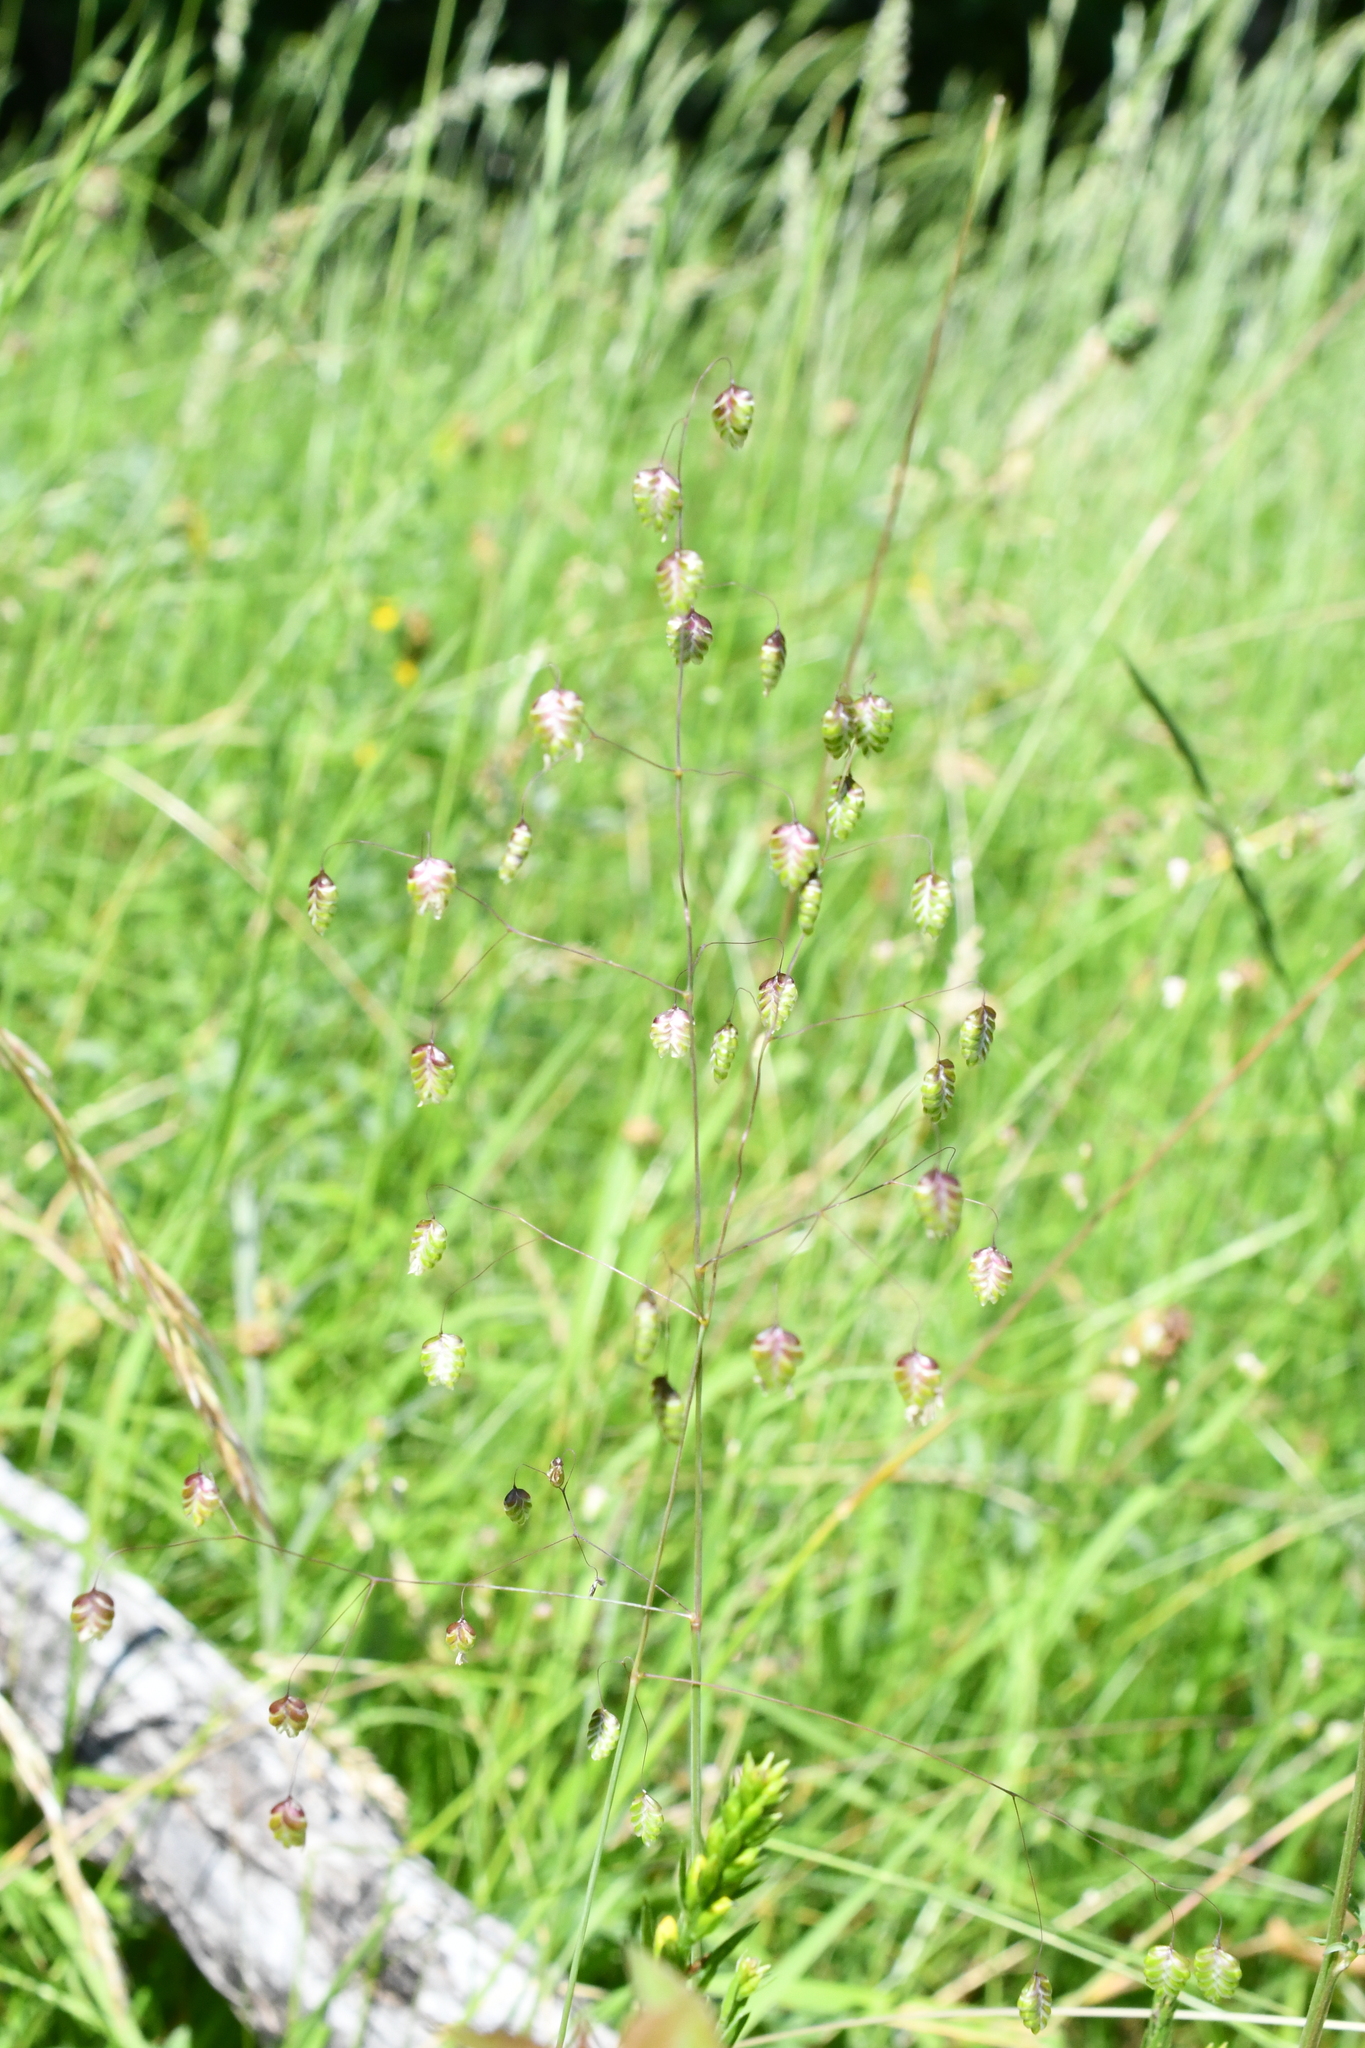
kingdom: Plantae
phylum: Tracheophyta
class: Liliopsida
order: Poales
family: Poaceae
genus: Briza
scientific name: Briza media
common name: Quaking grass
